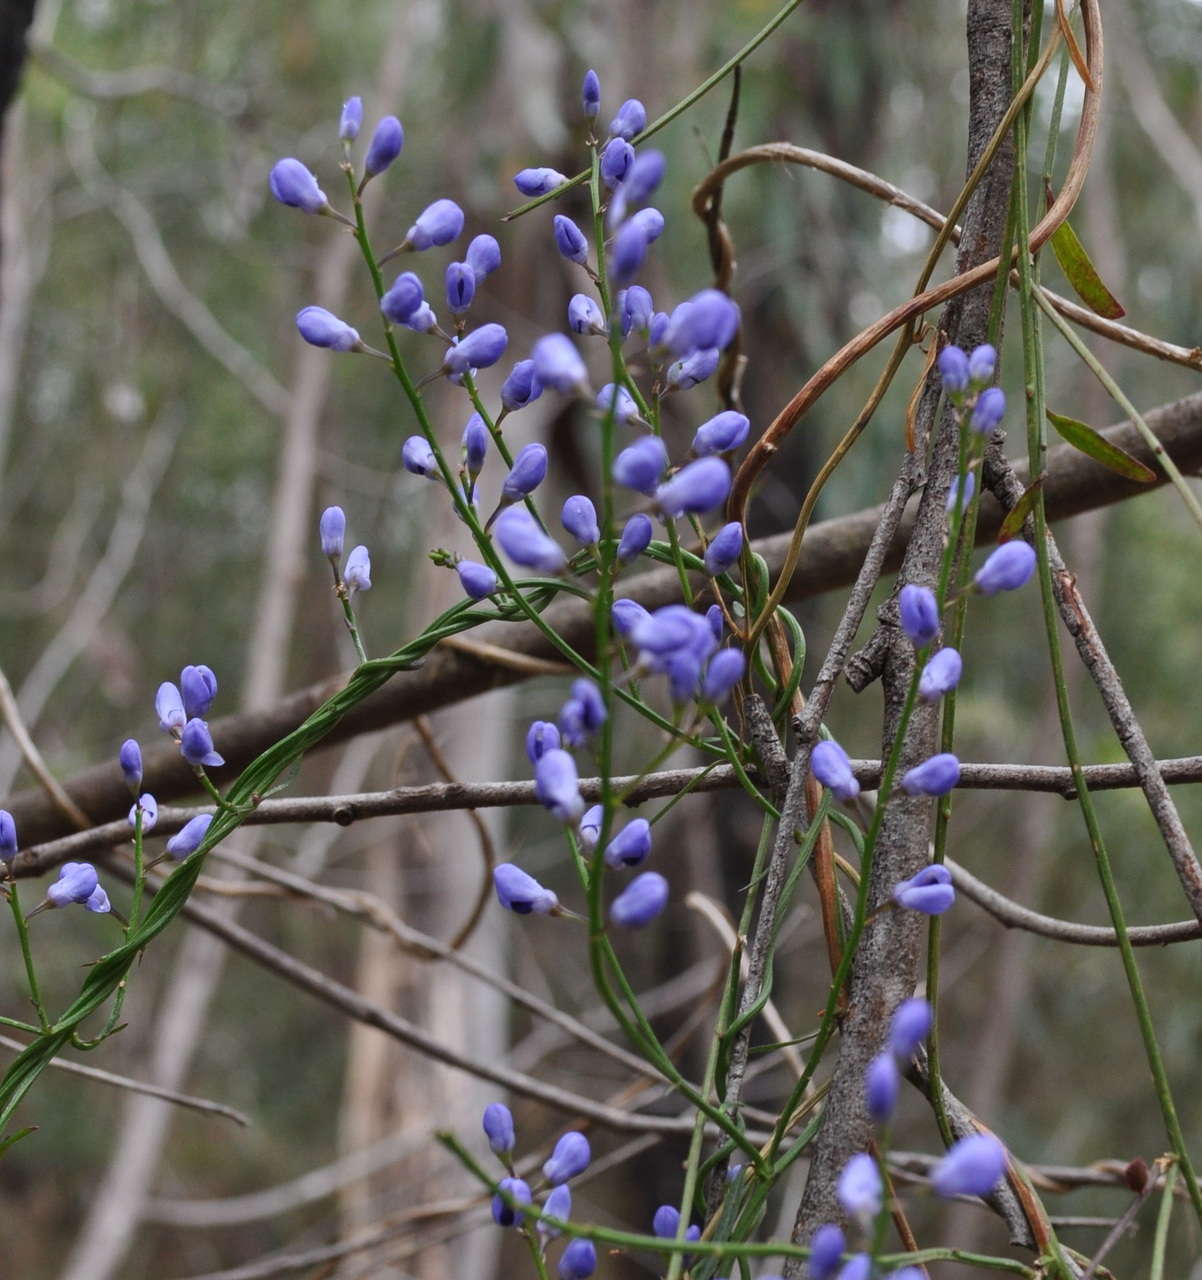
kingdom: Plantae
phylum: Tracheophyta
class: Magnoliopsida
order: Fabales
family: Polygalaceae
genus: Comesperma
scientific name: Comesperma volubile
